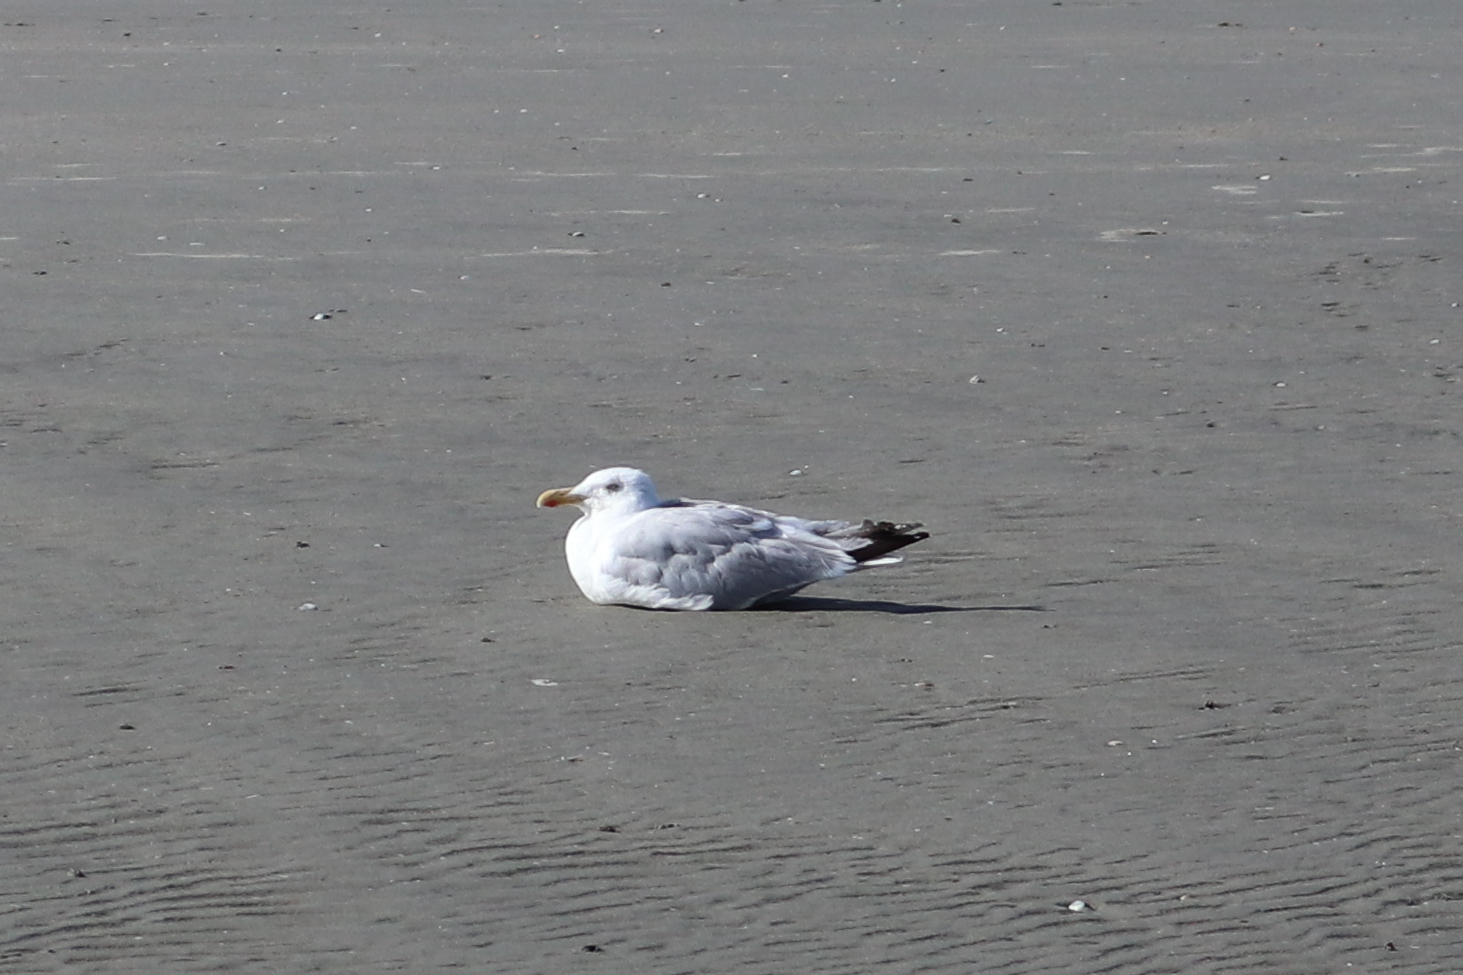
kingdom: Animalia
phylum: Chordata
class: Aves
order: Charadriiformes
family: Laridae
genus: Larus
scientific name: Larus argentatus
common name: Herring gull
